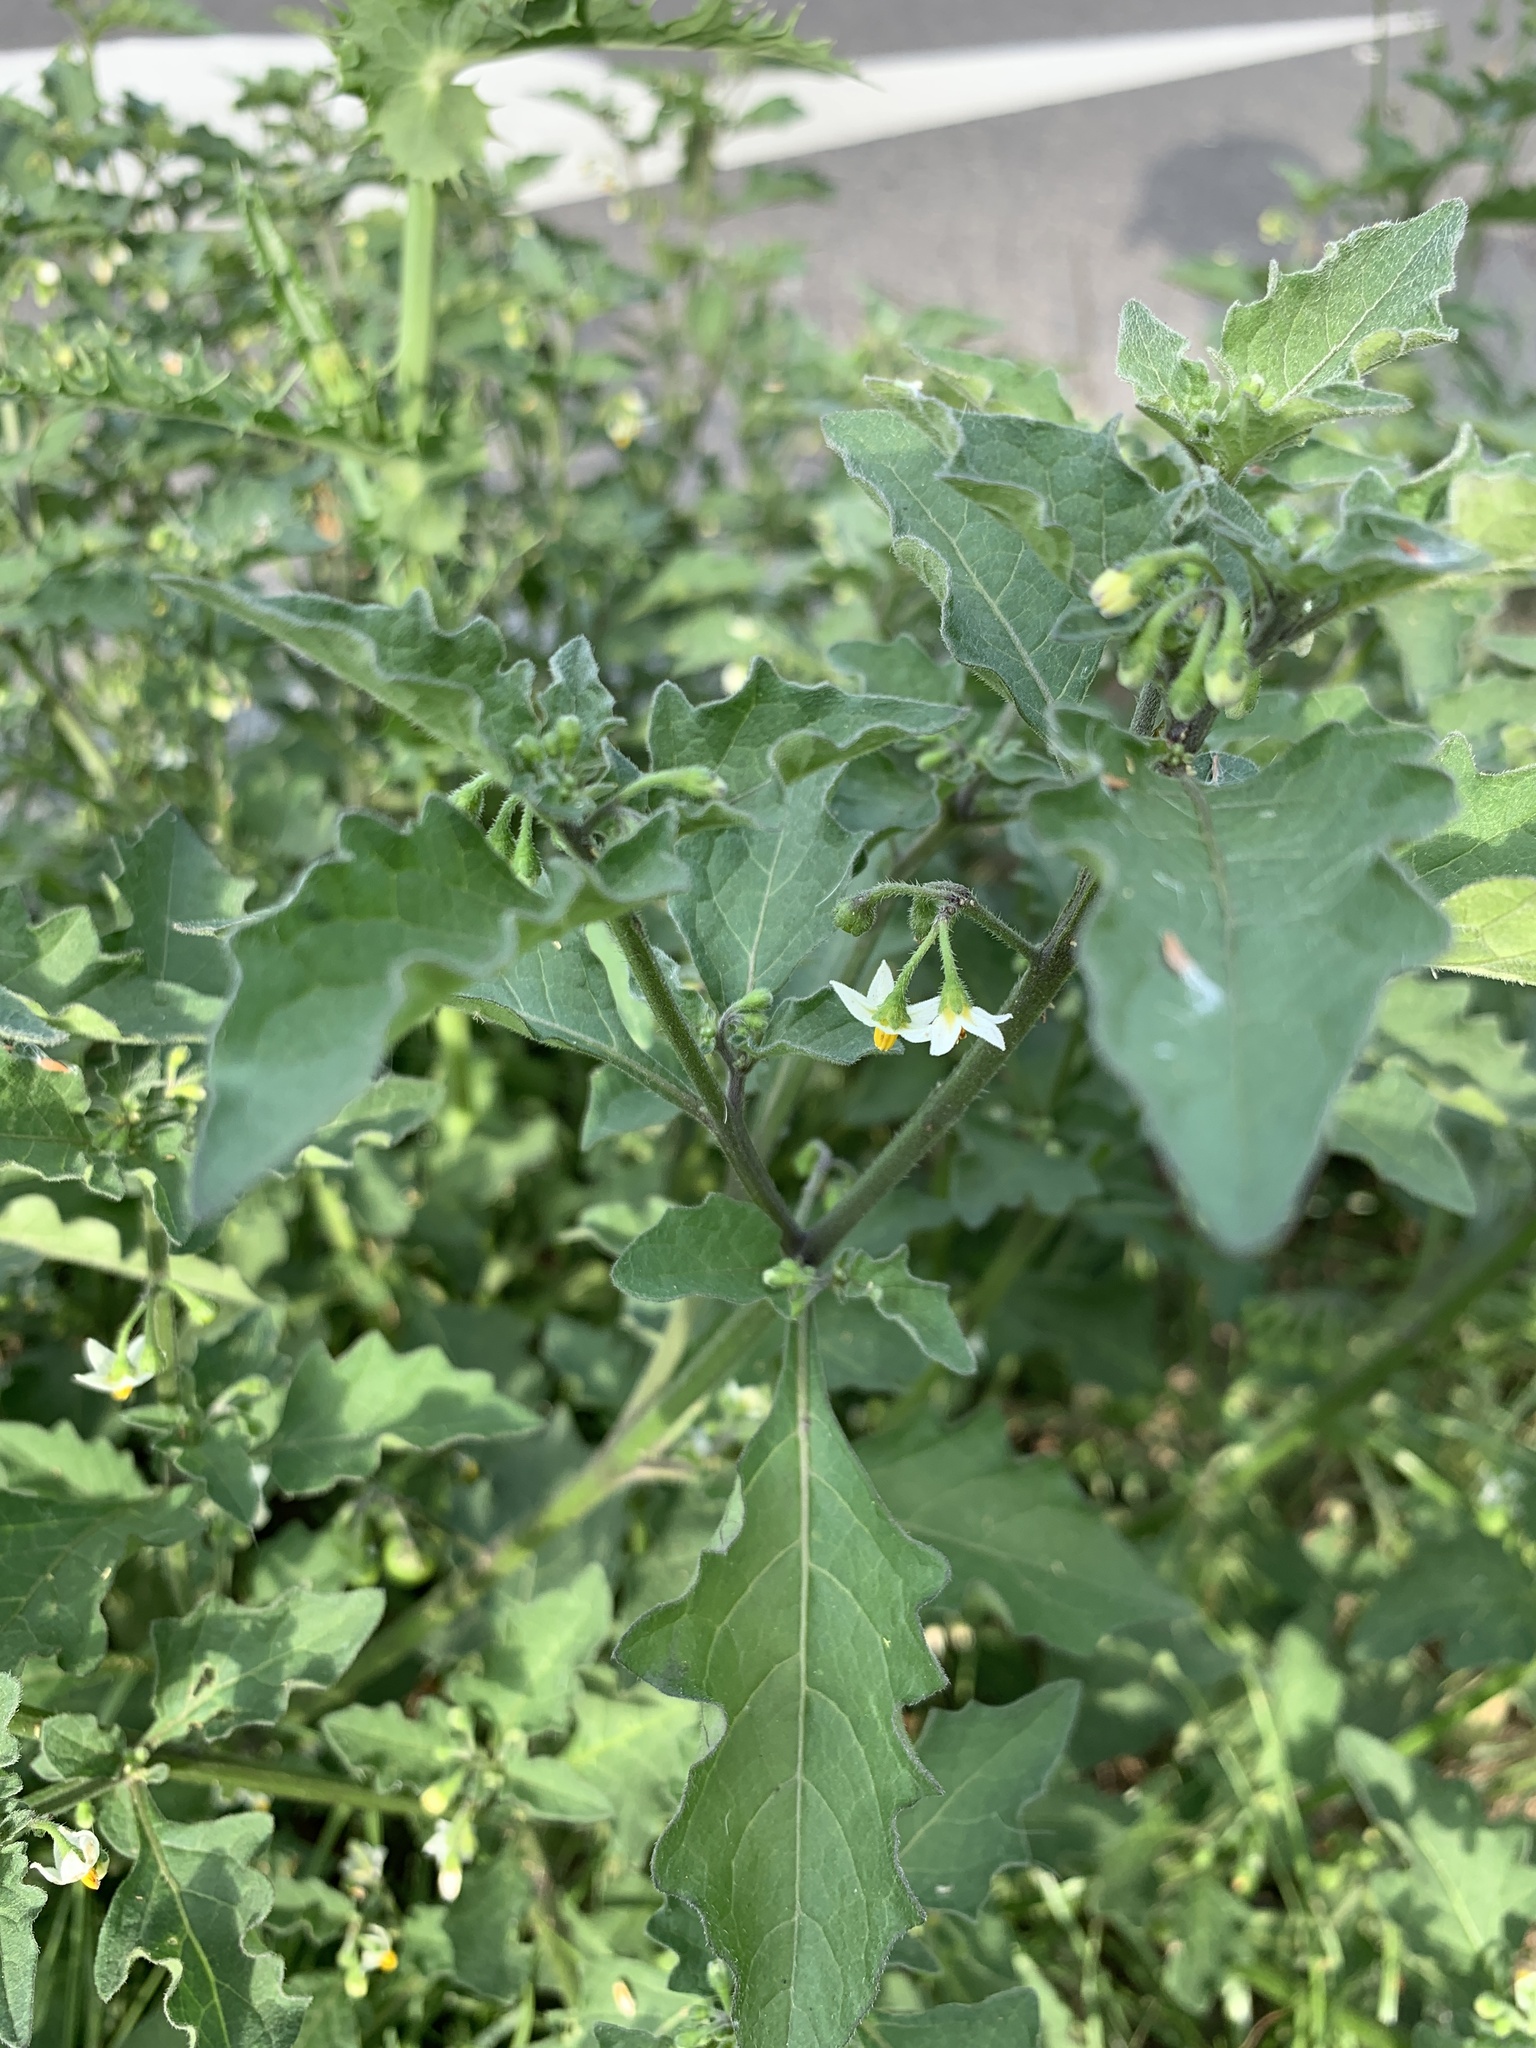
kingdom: Plantae
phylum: Tracheophyta
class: Magnoliopsida
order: Solanales
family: Solanaceae
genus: Solanum
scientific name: Solanum nigrum
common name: Black nightshade
